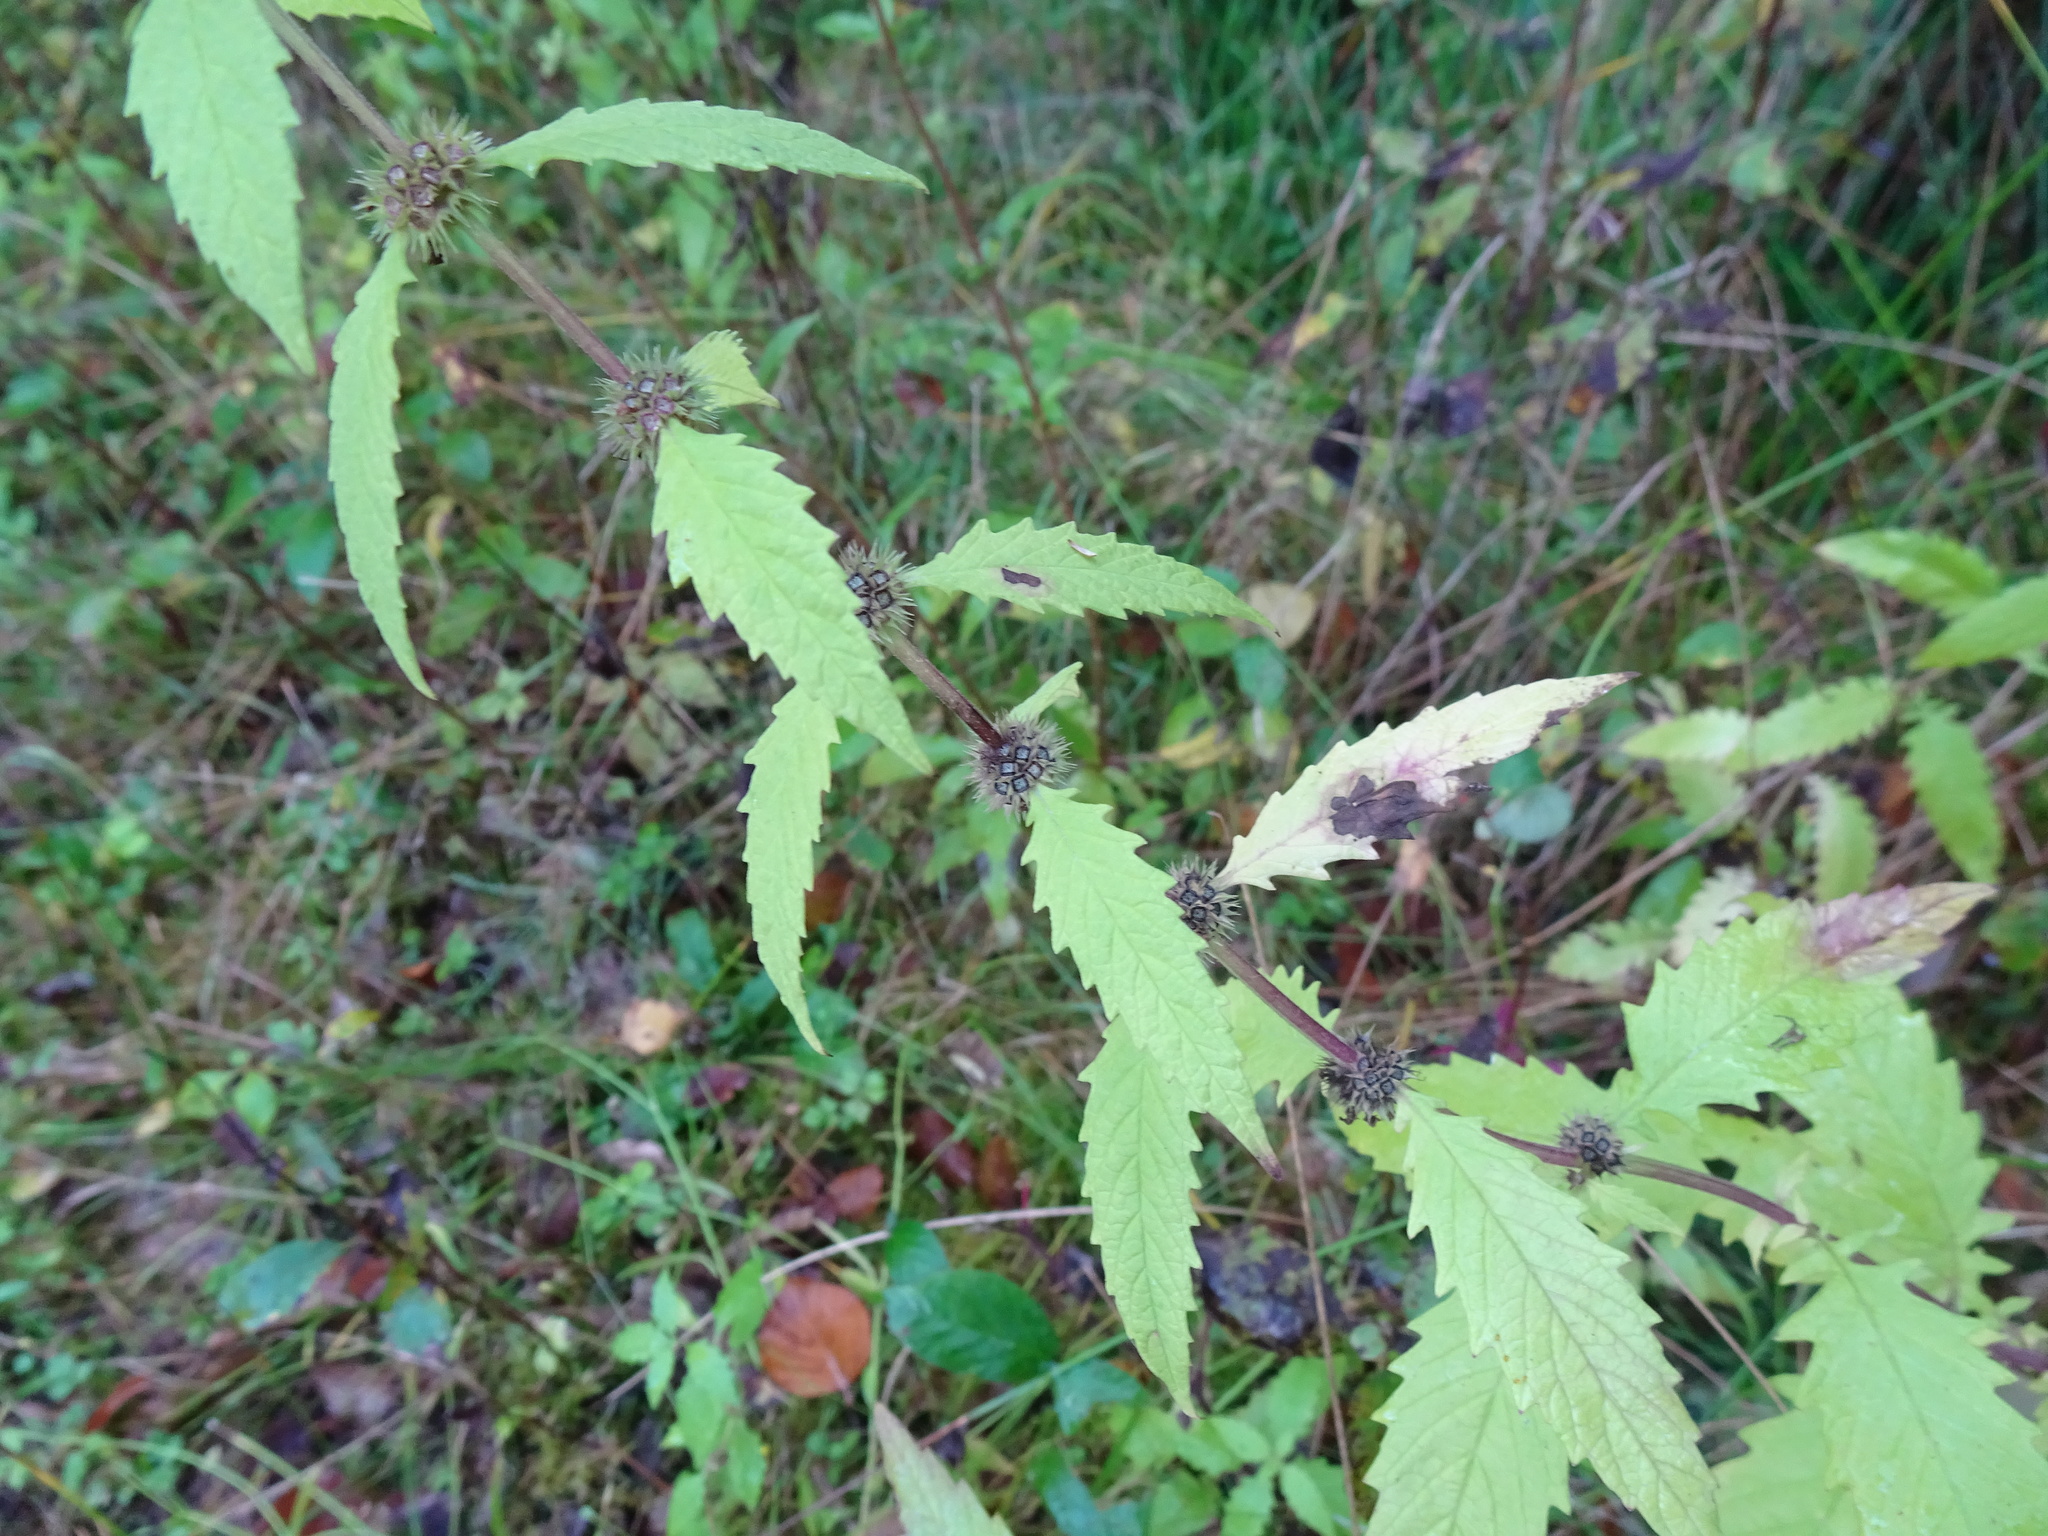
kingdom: Plantae
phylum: Tracheophyta
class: Magnoliopsida
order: Lamiales
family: Lamiaceae
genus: Lycopus
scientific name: Lycopus europaeus
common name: European bugleweed
